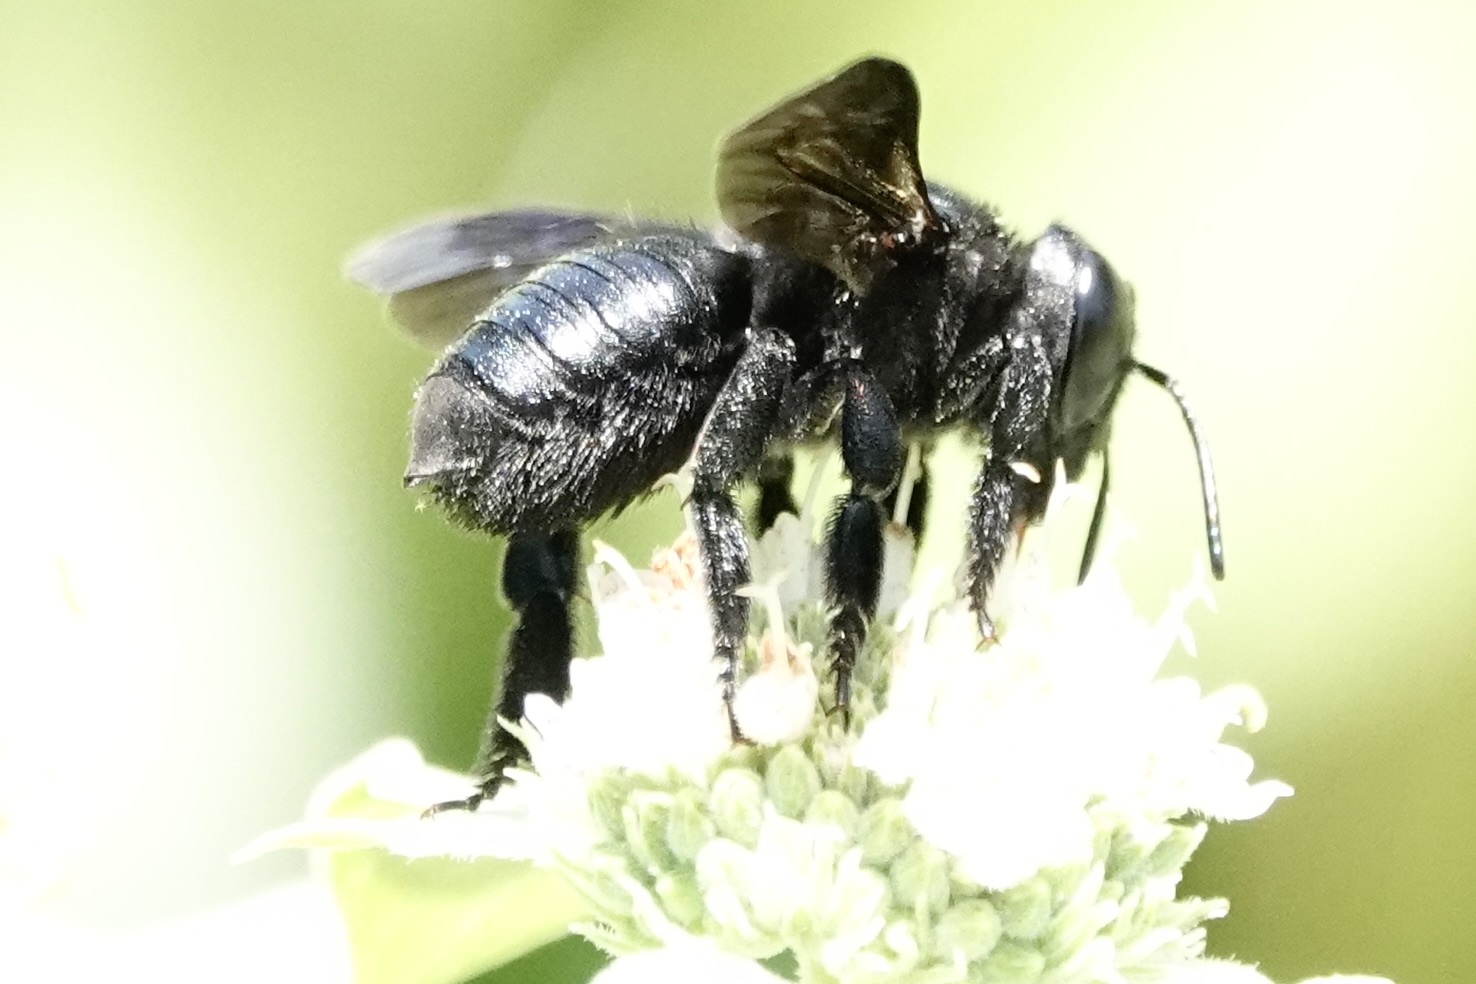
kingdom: Animalia
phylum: Arthropoda
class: Insecta
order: Hymenoptera
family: Megachilidae
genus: Megachile
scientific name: Megachile xylocopoides
